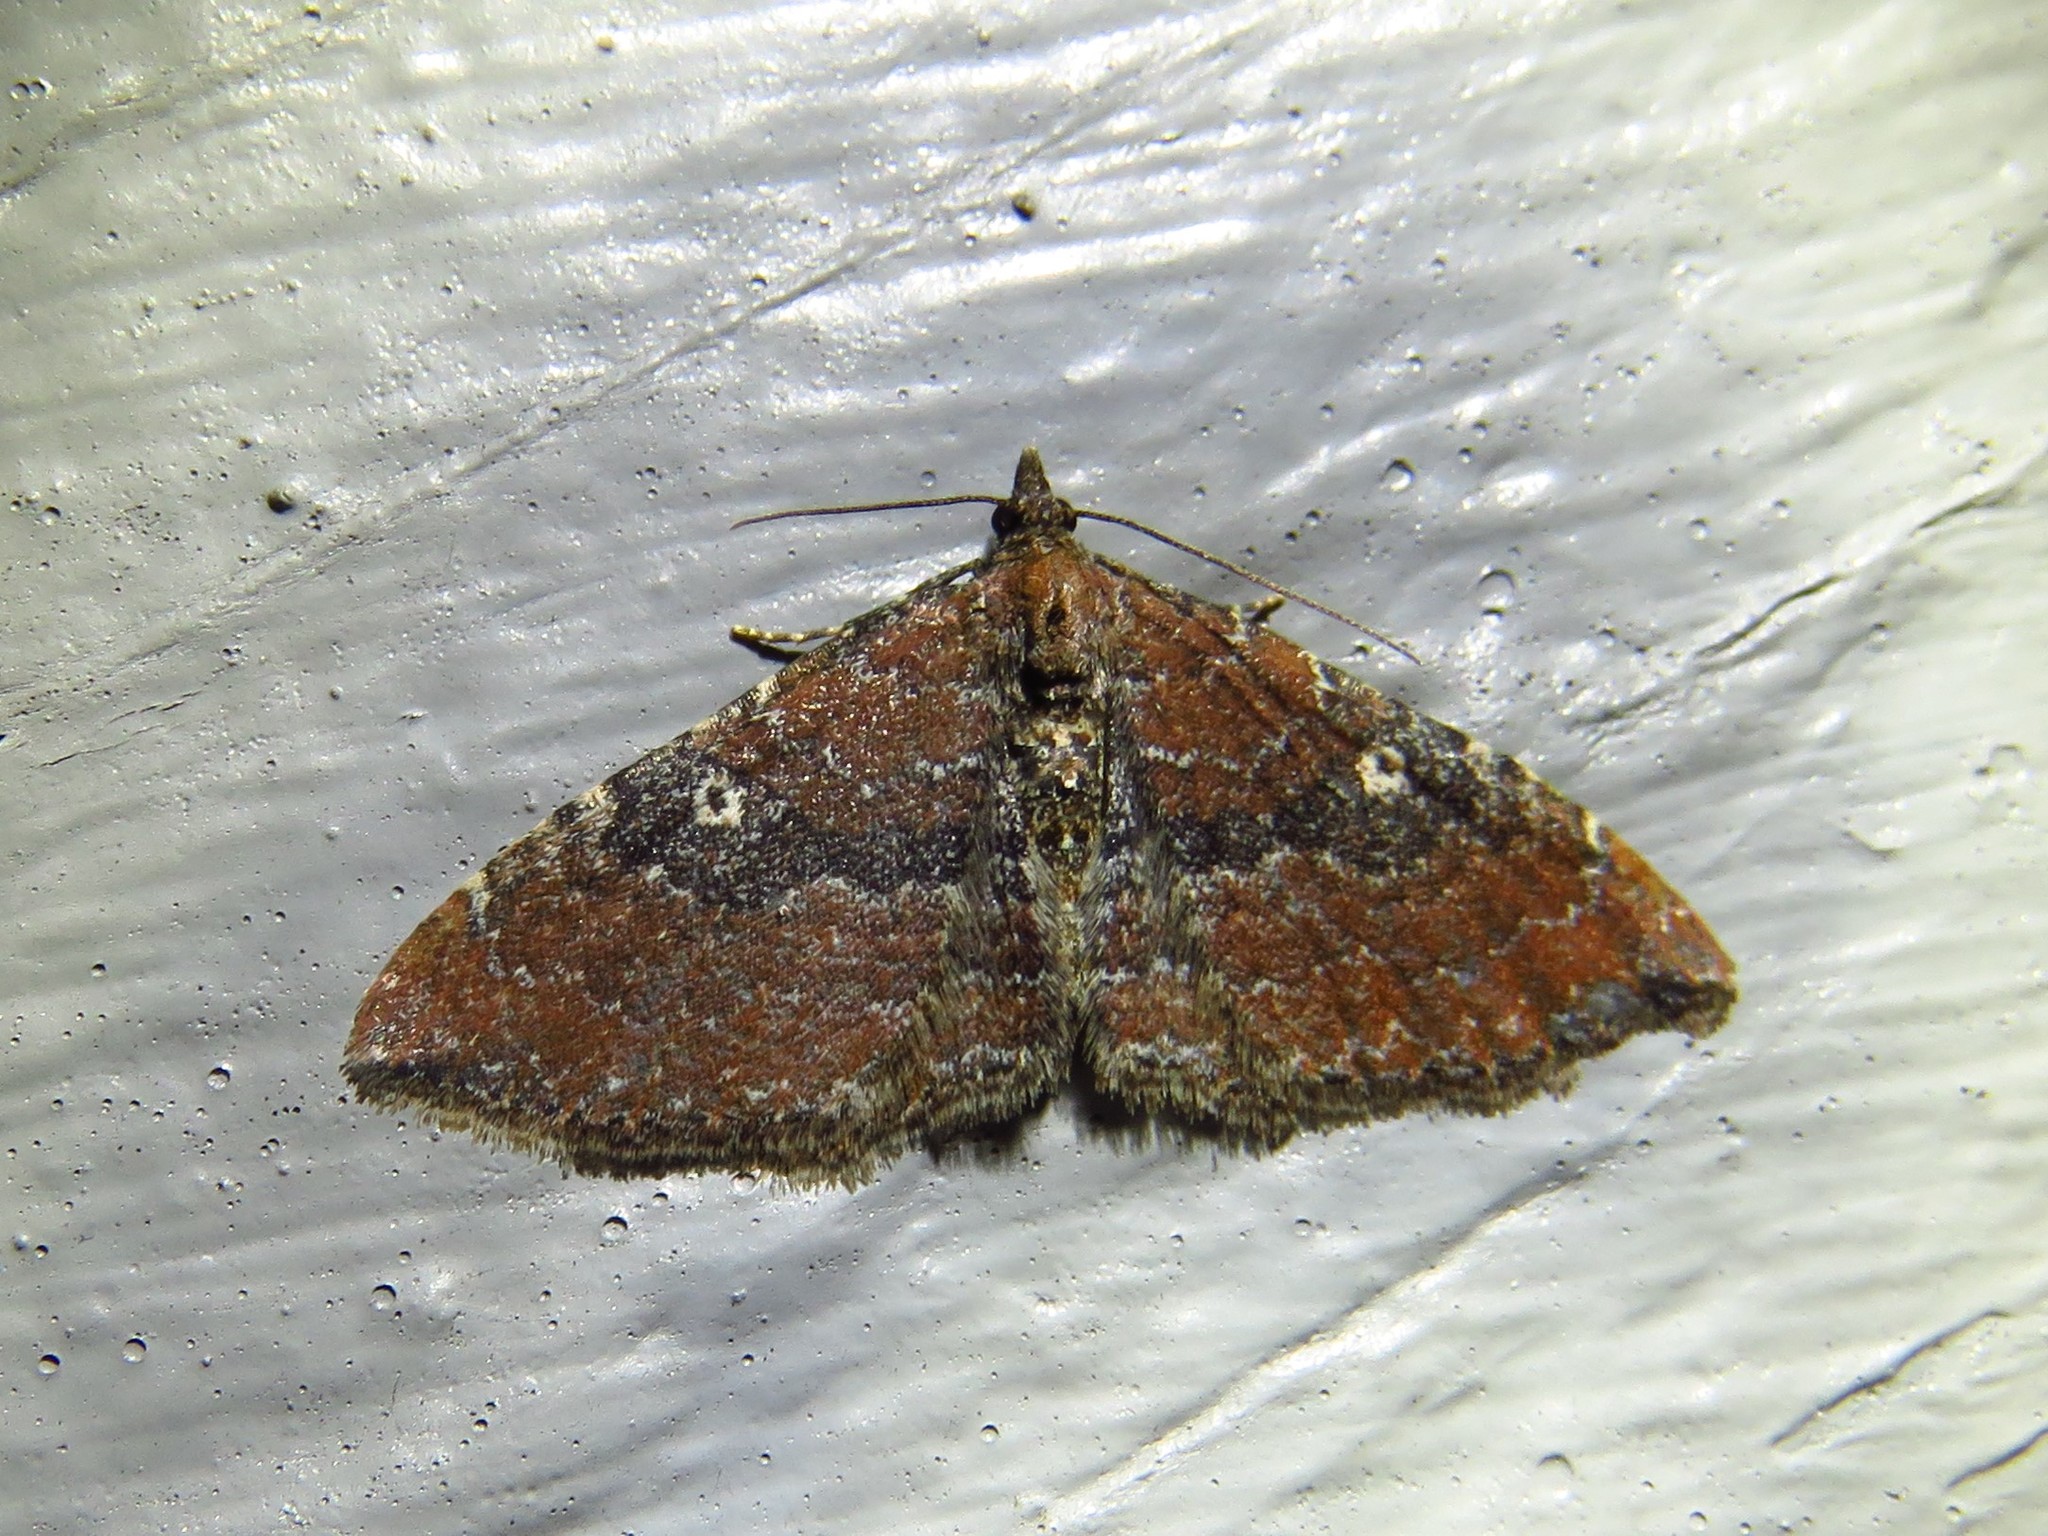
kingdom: Animalia
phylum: Arthropoda
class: Insecta
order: Lepidoptera
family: Geometridae
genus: Orthonama
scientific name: Orthonama obstipata
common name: The gem
